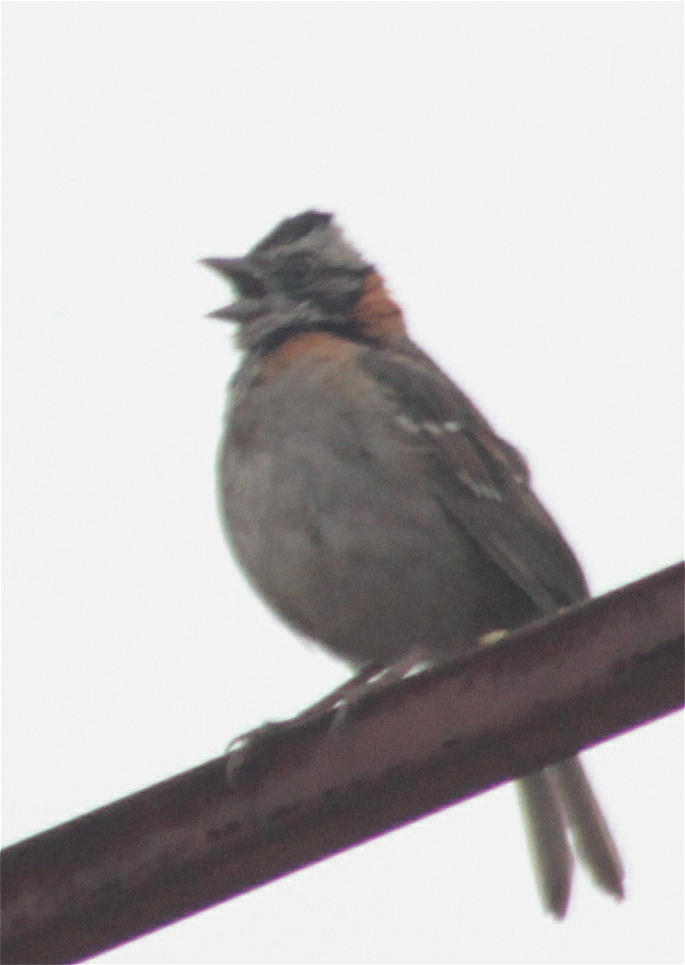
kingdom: Animalia
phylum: Chordata
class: Aves
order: Passeriformes
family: Passerellidae
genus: Zonotrichia
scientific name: Zonotrichia capensis
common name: Rufous-collared sparrow
